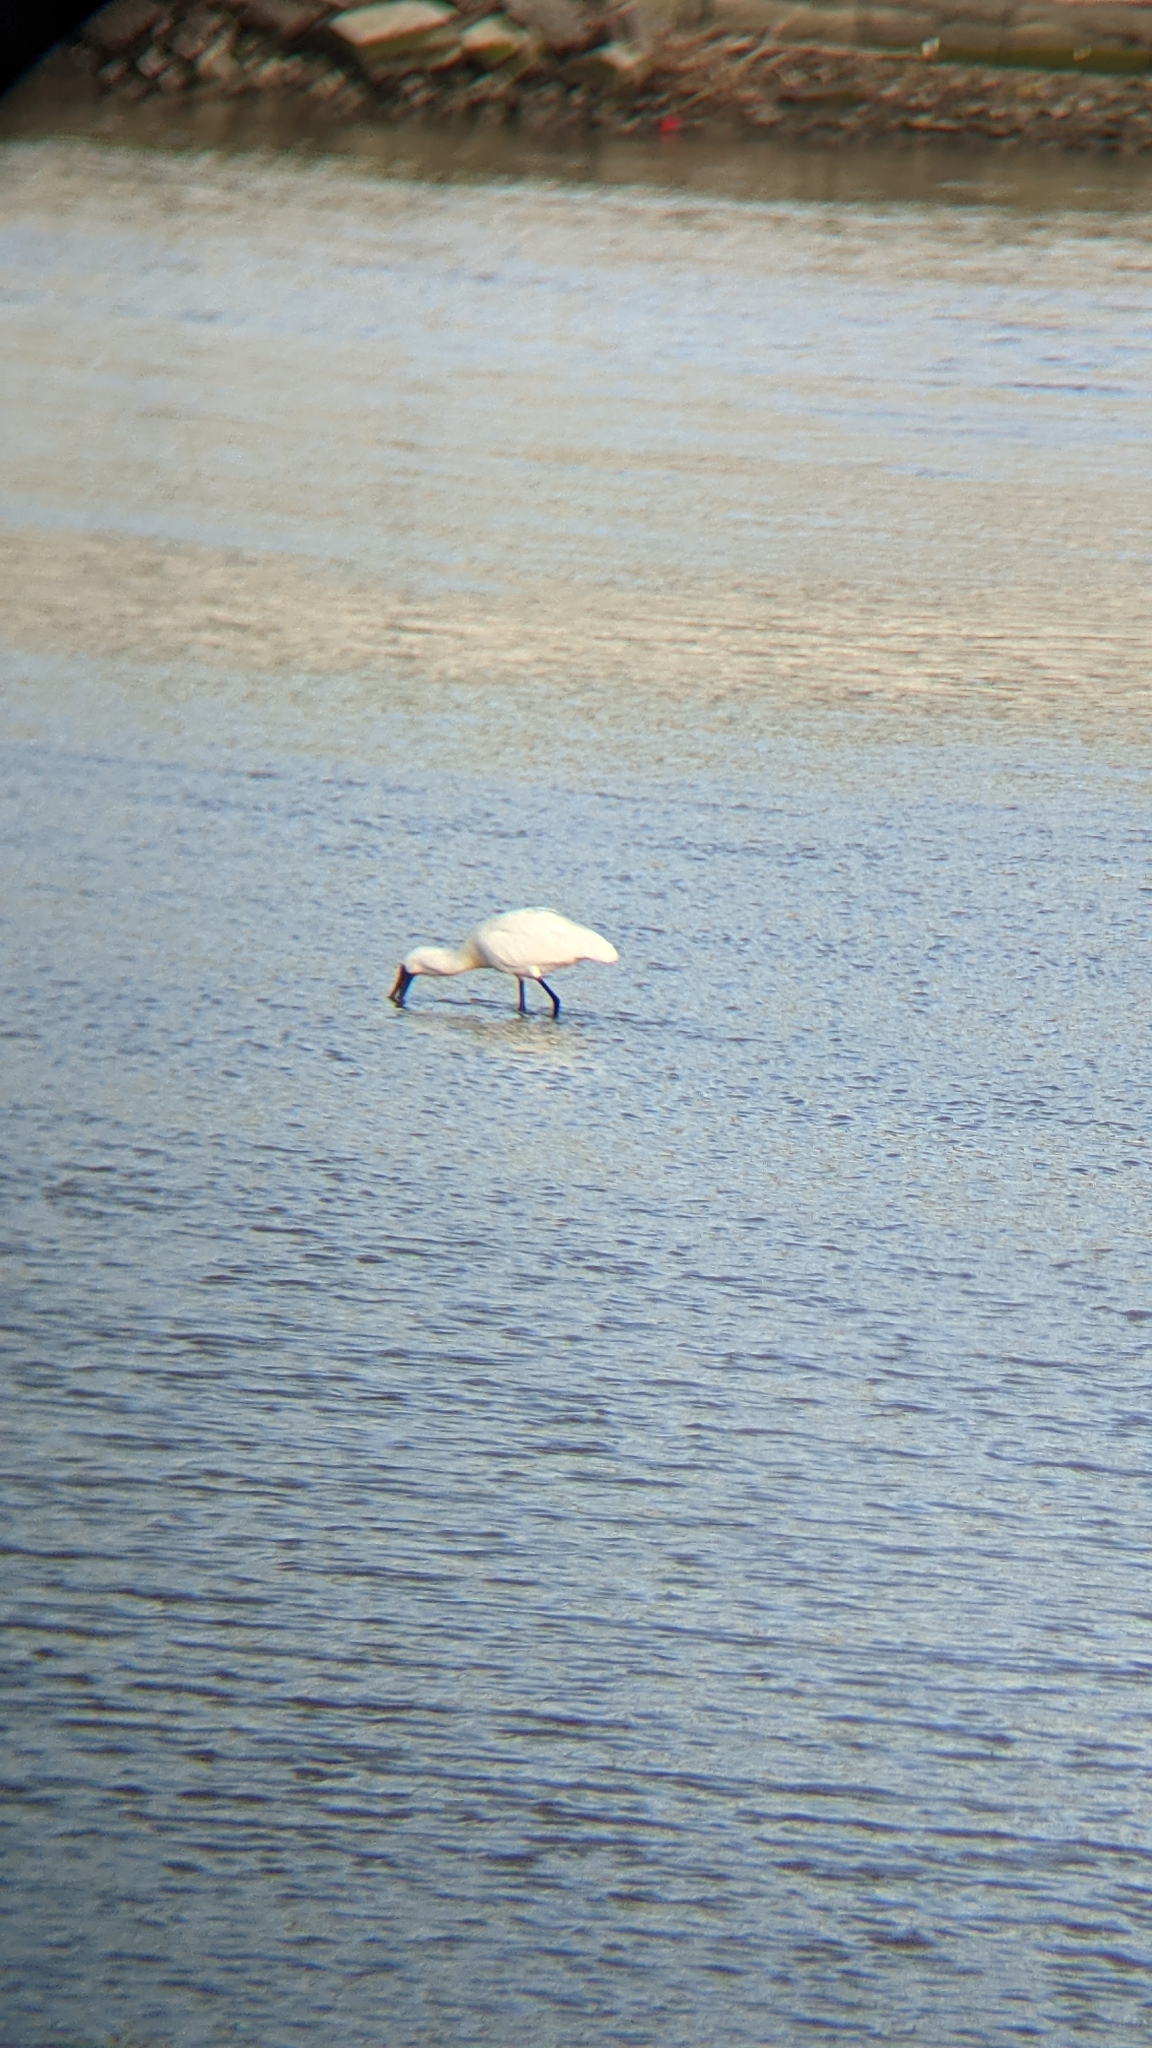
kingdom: Animalia
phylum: Chordata
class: Aves
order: Pelecaniformes
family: Threskiornithidae
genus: Platalea
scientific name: Platalea regia
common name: Royal spoonbill
